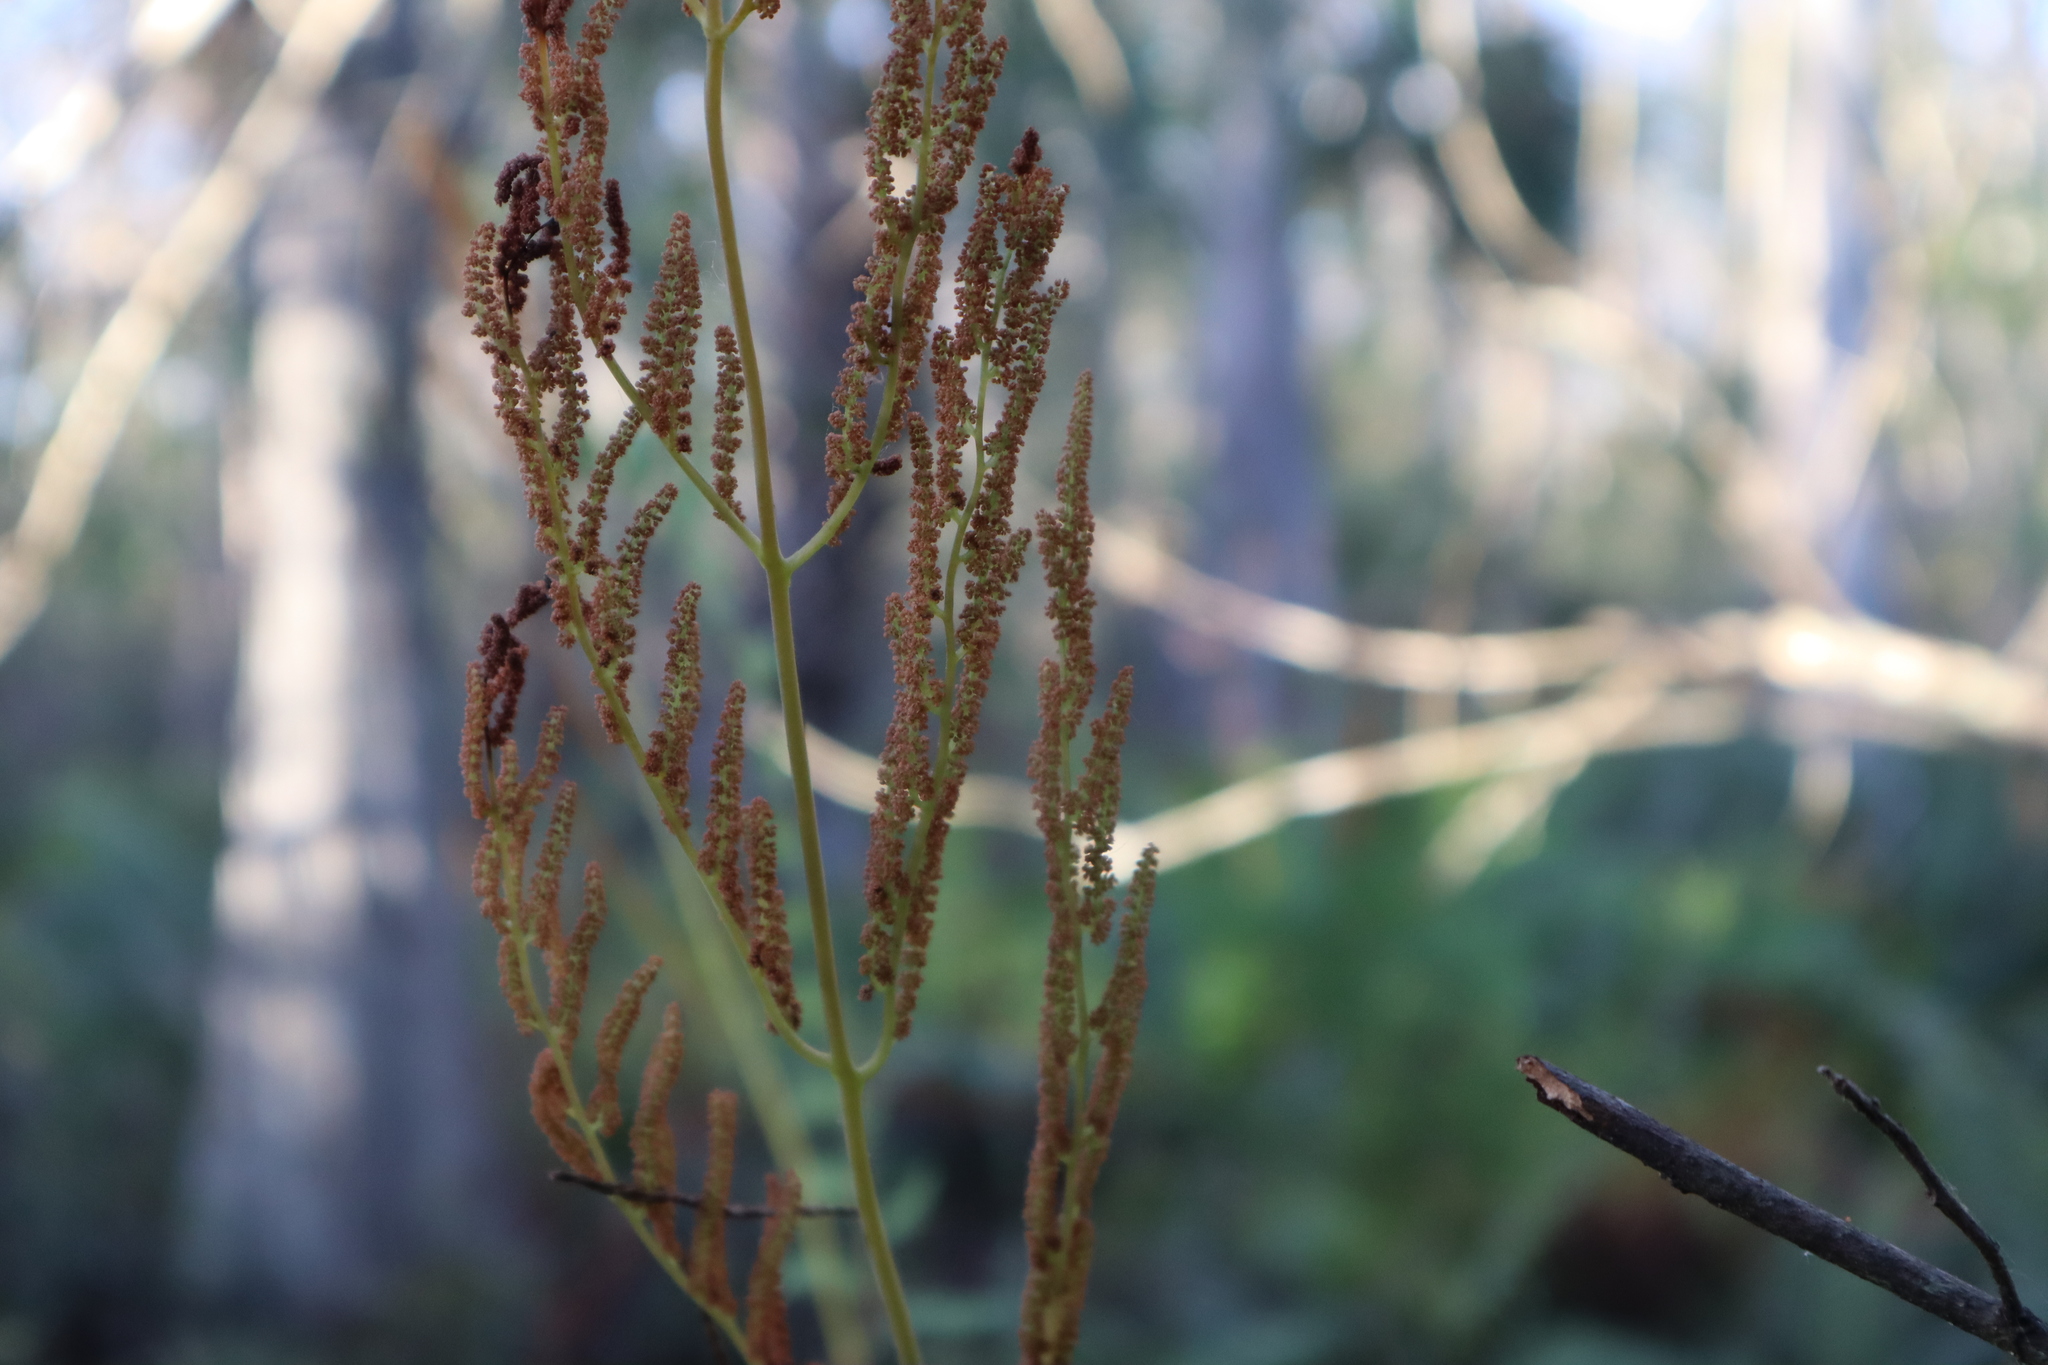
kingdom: Plantae
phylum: Tracheophyta
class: Polypodiopsida
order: Osmundales
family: Osmundaceae
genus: Osmunda
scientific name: Osmunda spectabilis
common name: American royal fern
